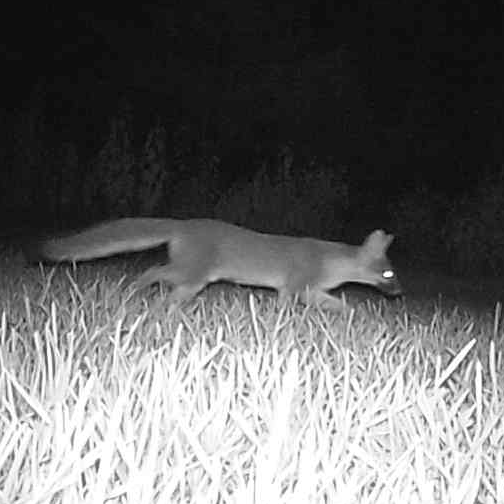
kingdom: Animalia
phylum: Chordata
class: Mammalia
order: Carnivora
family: Canidae
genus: Urocyon
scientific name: Urocyon cinereoargenteus
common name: Gray fox
